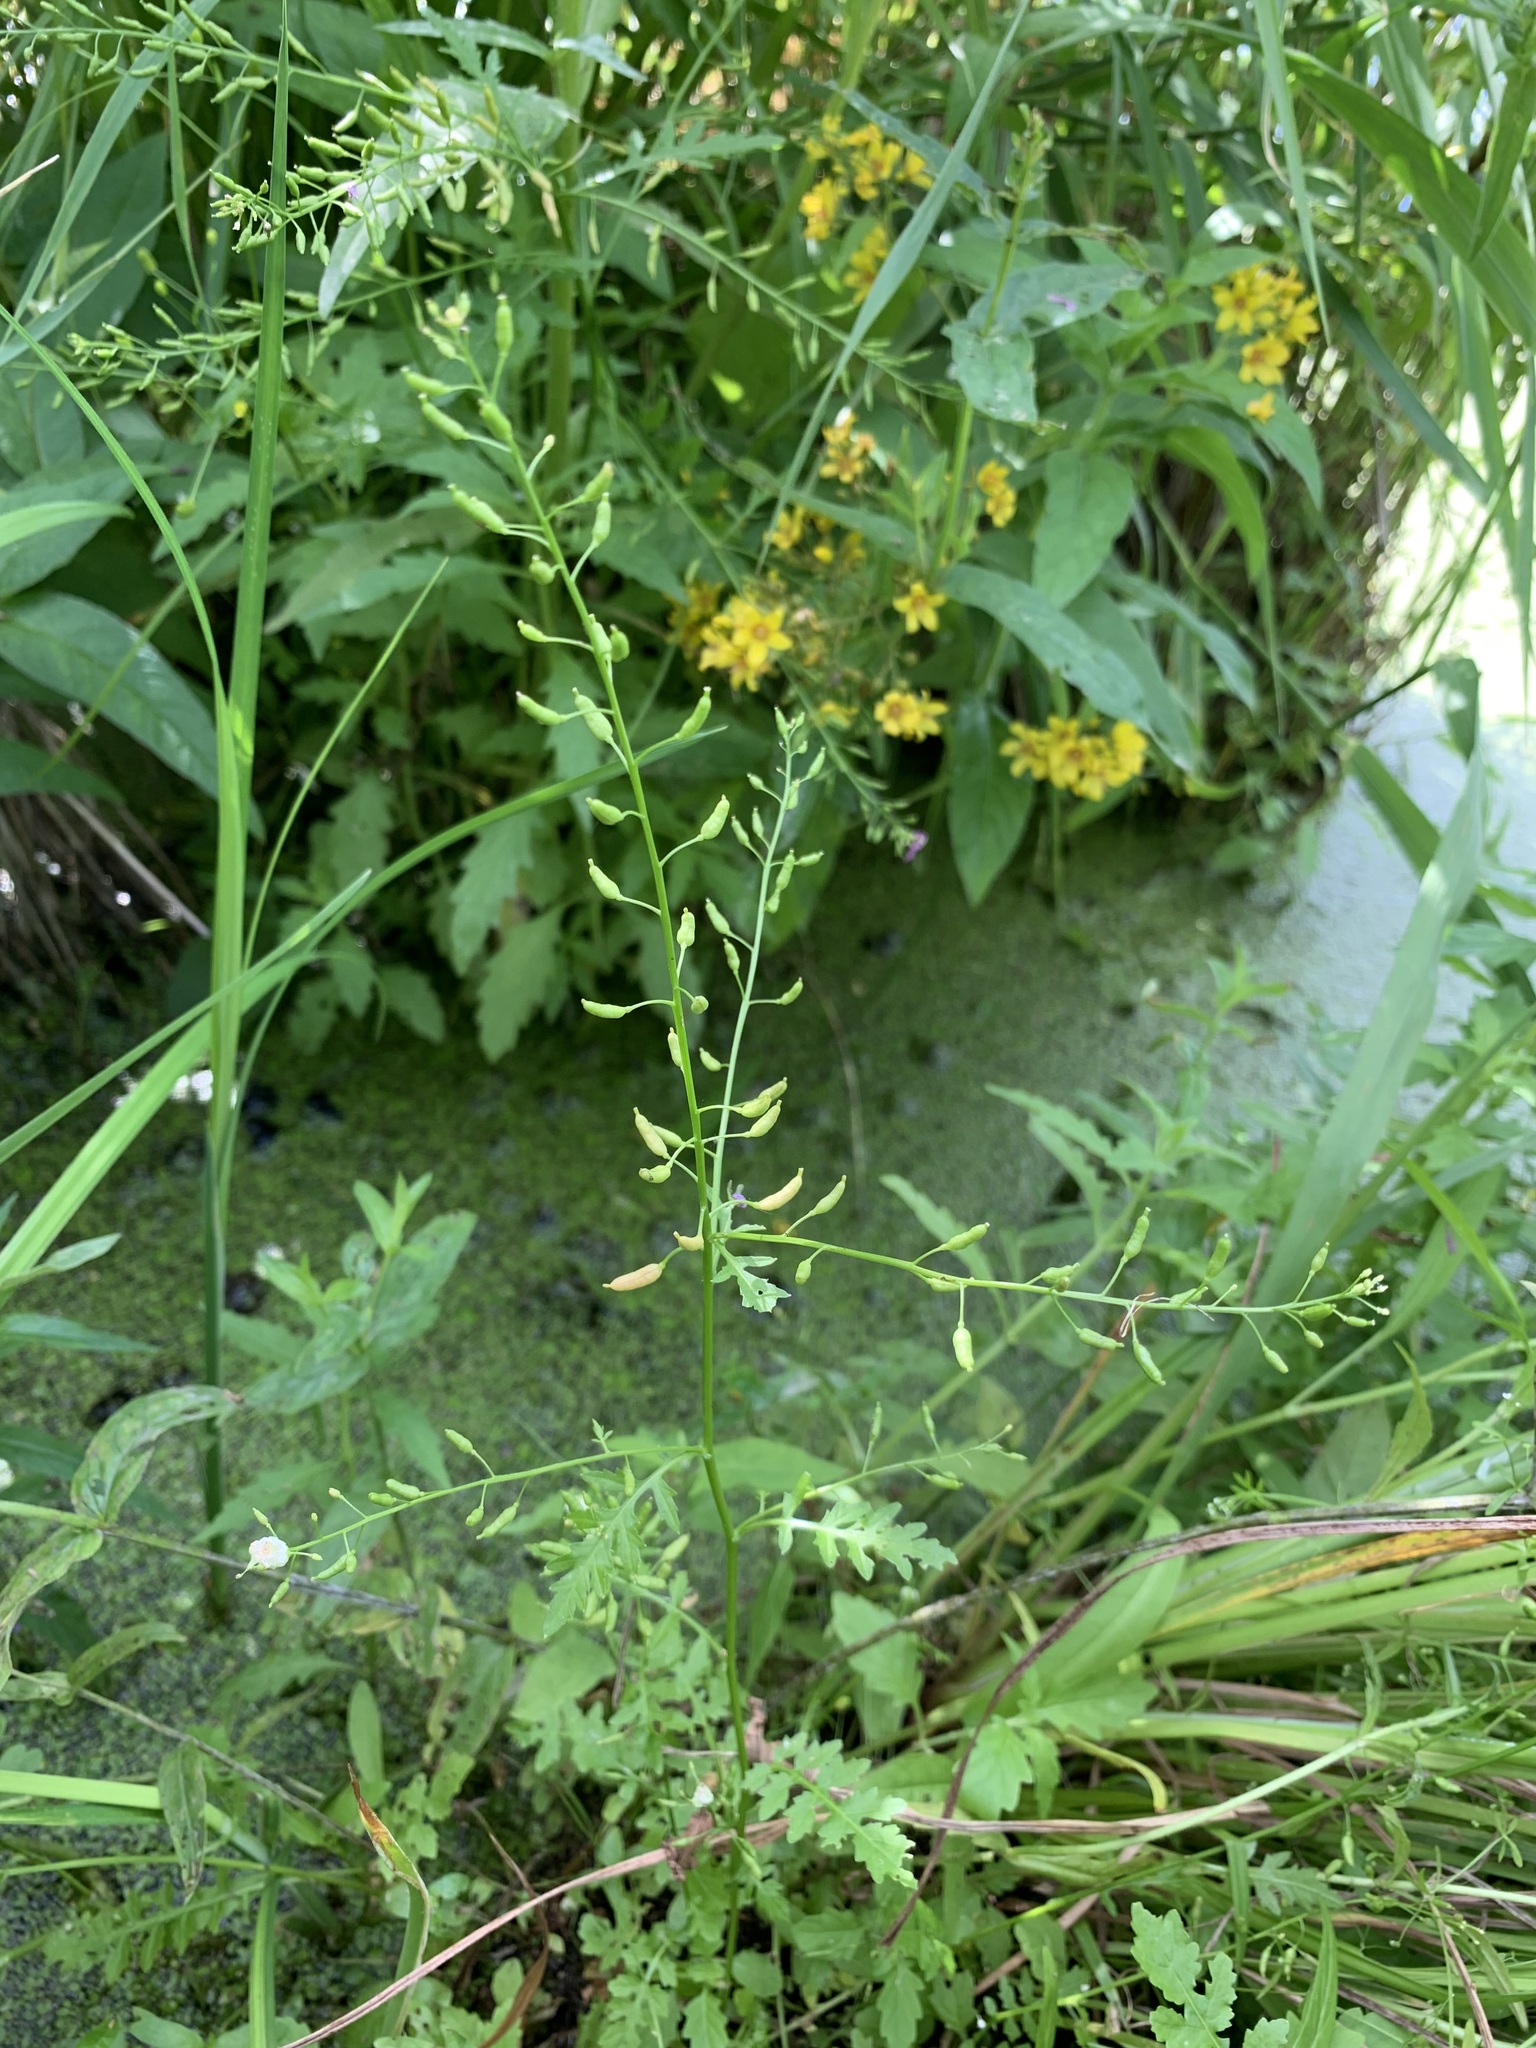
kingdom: Plantae
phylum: Tracheophyta
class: Magnoliopsida
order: Brassicales
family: Brassicaceae
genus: Rorippa
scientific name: Rorippa palustris
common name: Marsh yellow-cress
